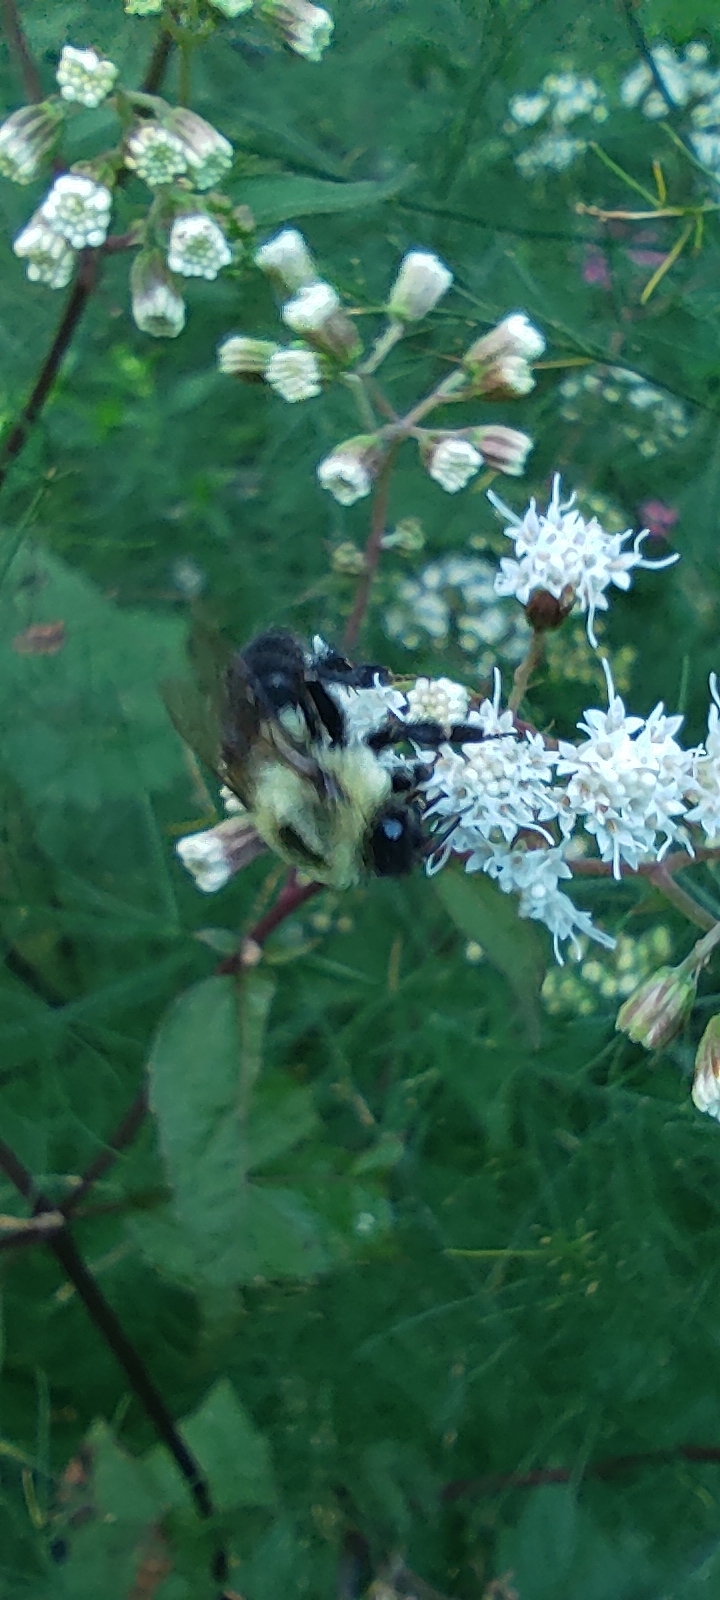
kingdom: Animalia
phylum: Arthropoda
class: Insecta
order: Hymenoptera
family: Apidae
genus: Bombus
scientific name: Bombus impatiens
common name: Common eastern bumble bee
